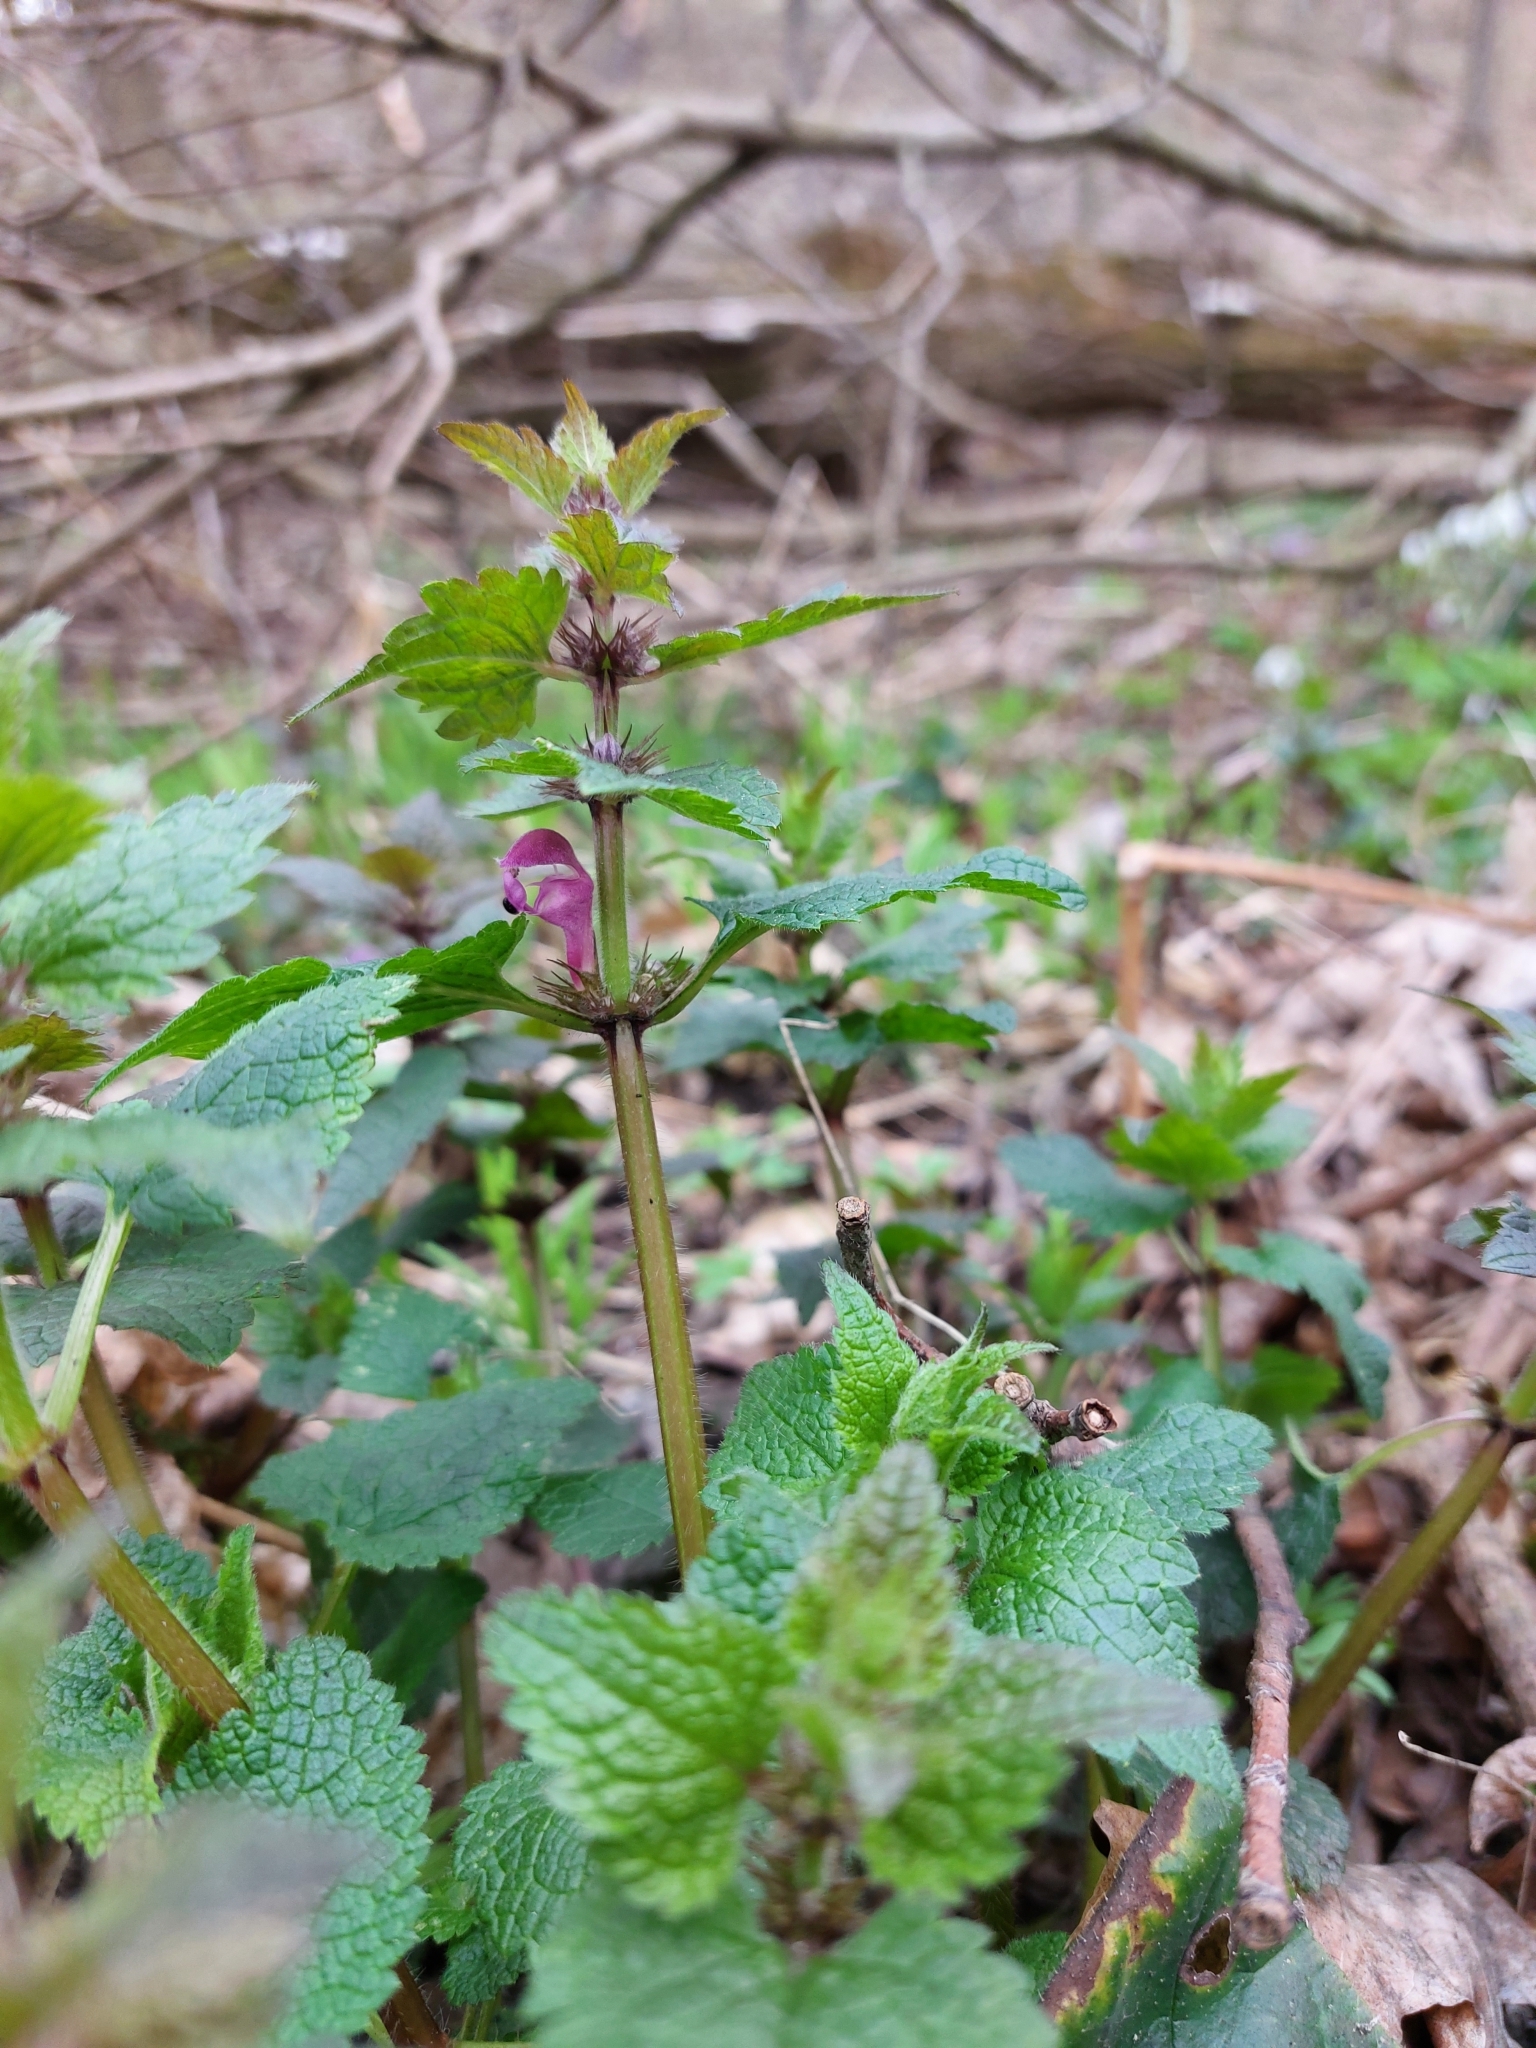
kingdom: Plantae
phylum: Tracheophyta
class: Magnoliopsida
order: Lamiales
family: Lamiaceae
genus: Lamium
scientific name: Lamium maculatum
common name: Spotted dead-nettle
